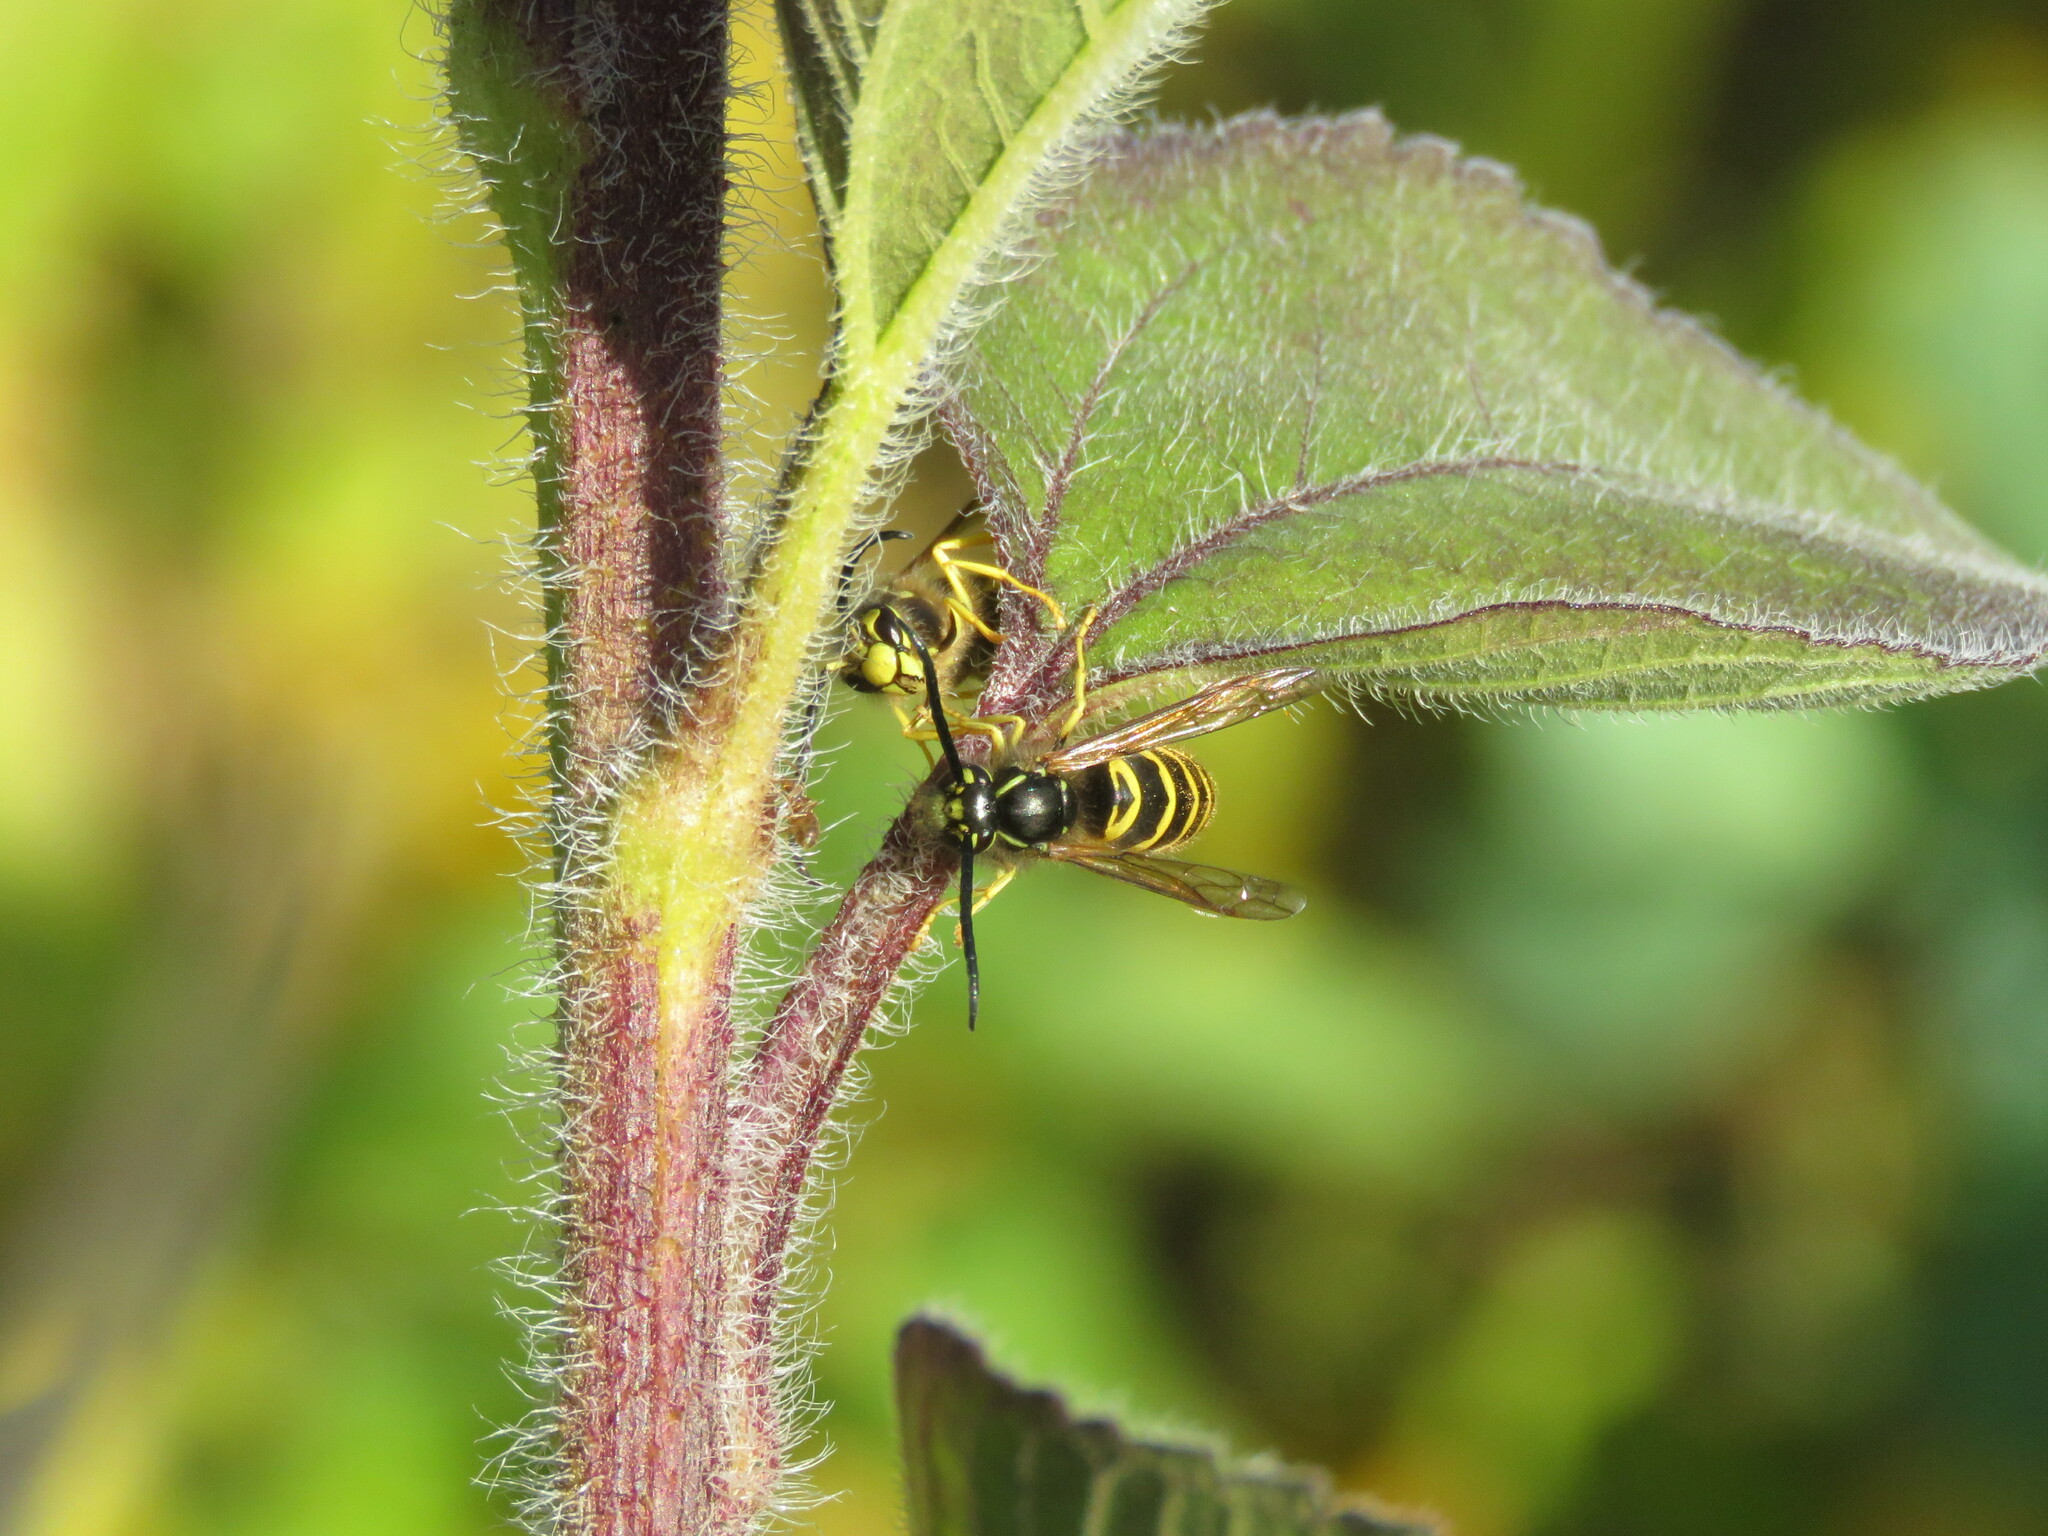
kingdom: Animalia
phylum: Arthropoda
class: Insecta
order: Hymenoptera
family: Vespidae
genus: Vespula
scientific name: Vespula maculifrons
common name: Eastern yellowjacket
